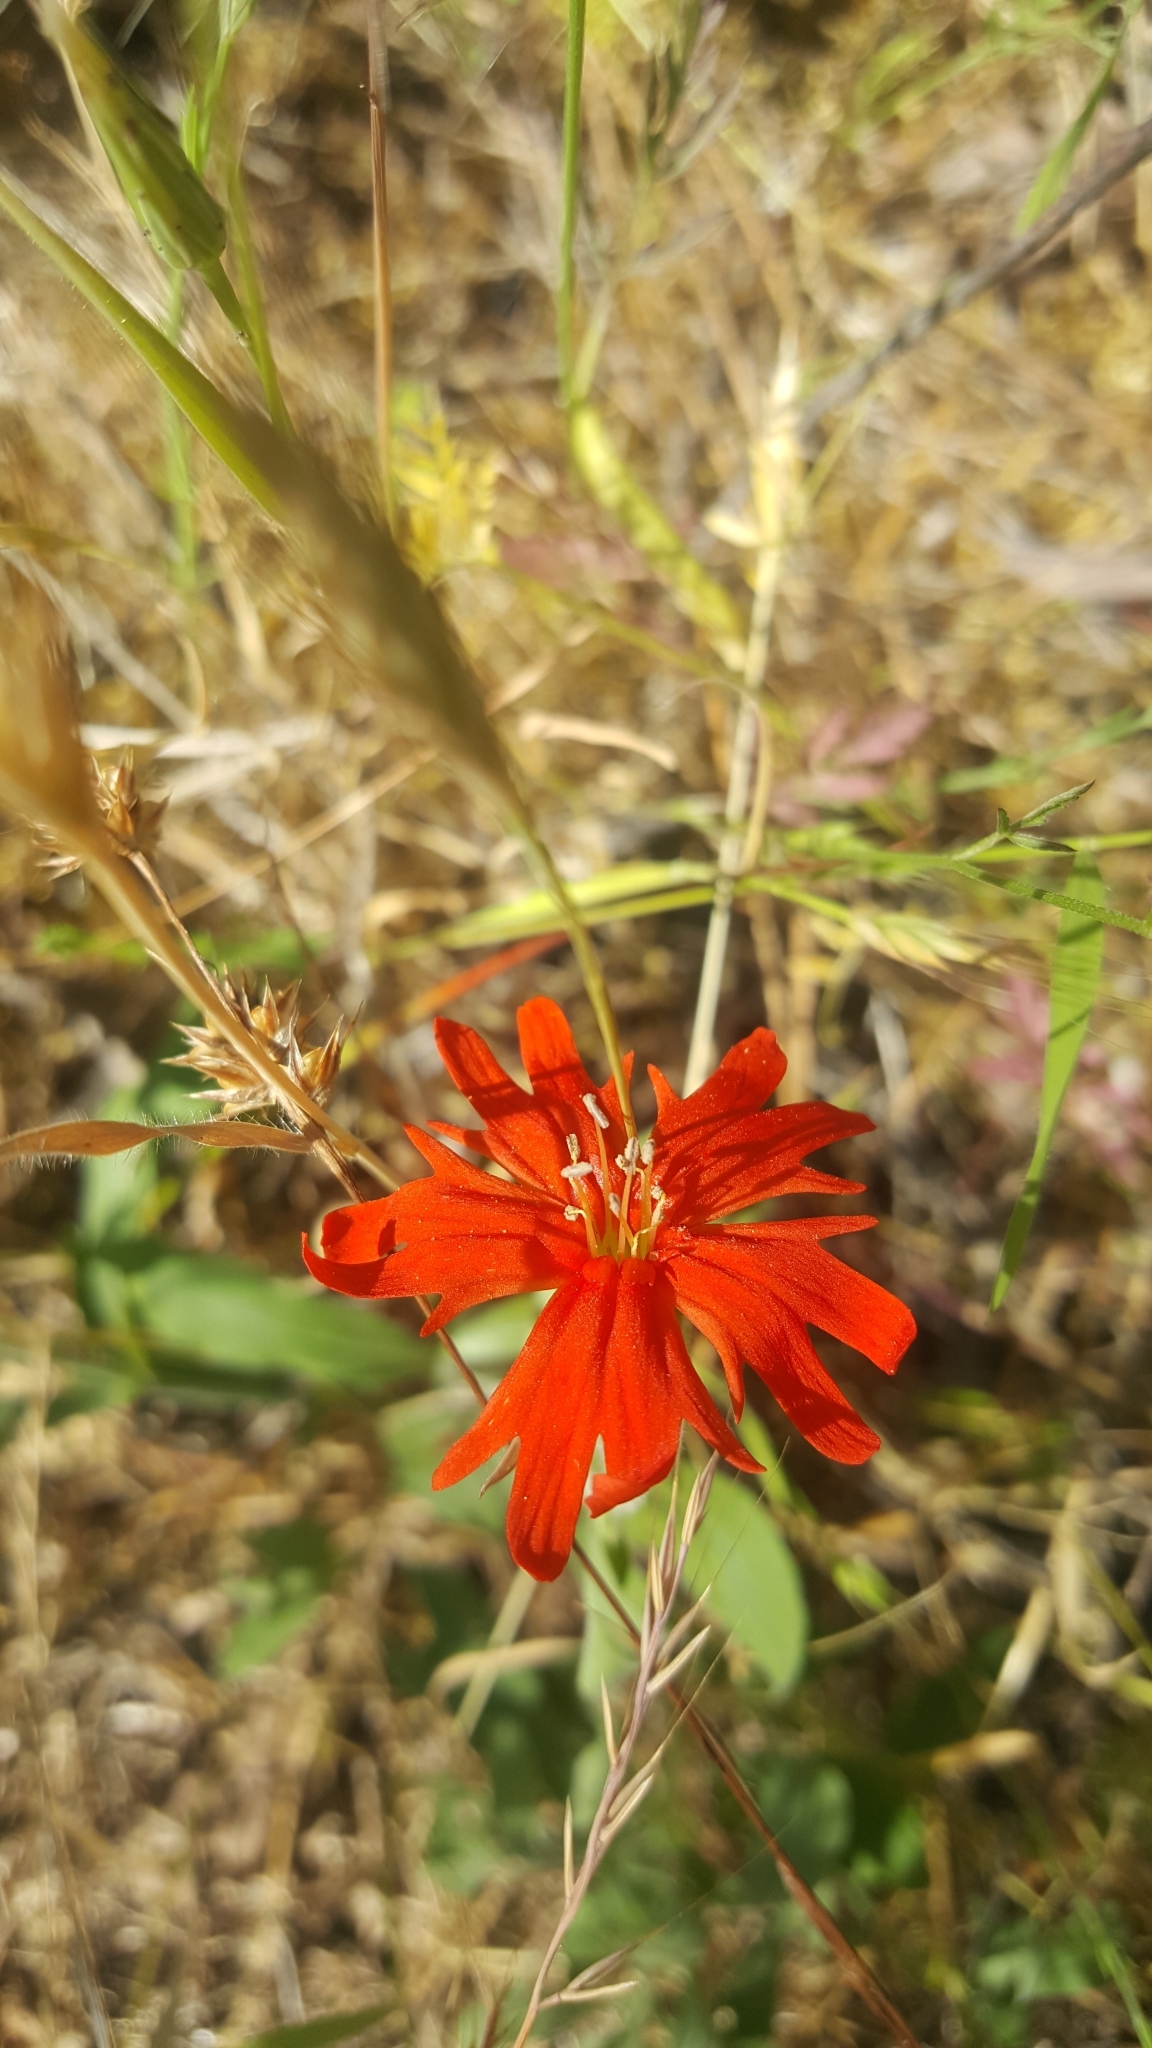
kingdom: Plantae
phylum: Tracheophyta
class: Magnoliopsida
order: Caryophyllales
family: Caryophyllaceae
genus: Silene
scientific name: Silene laciniata
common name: Indian-pink
